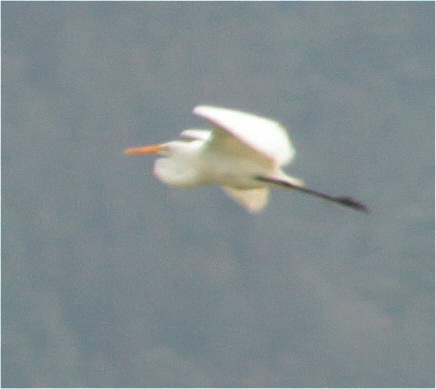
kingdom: Animalia
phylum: Chordata
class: Aves
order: Pelecaniformes
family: Ardeidae
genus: Ardea
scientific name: Ardea alba
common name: Great egret
